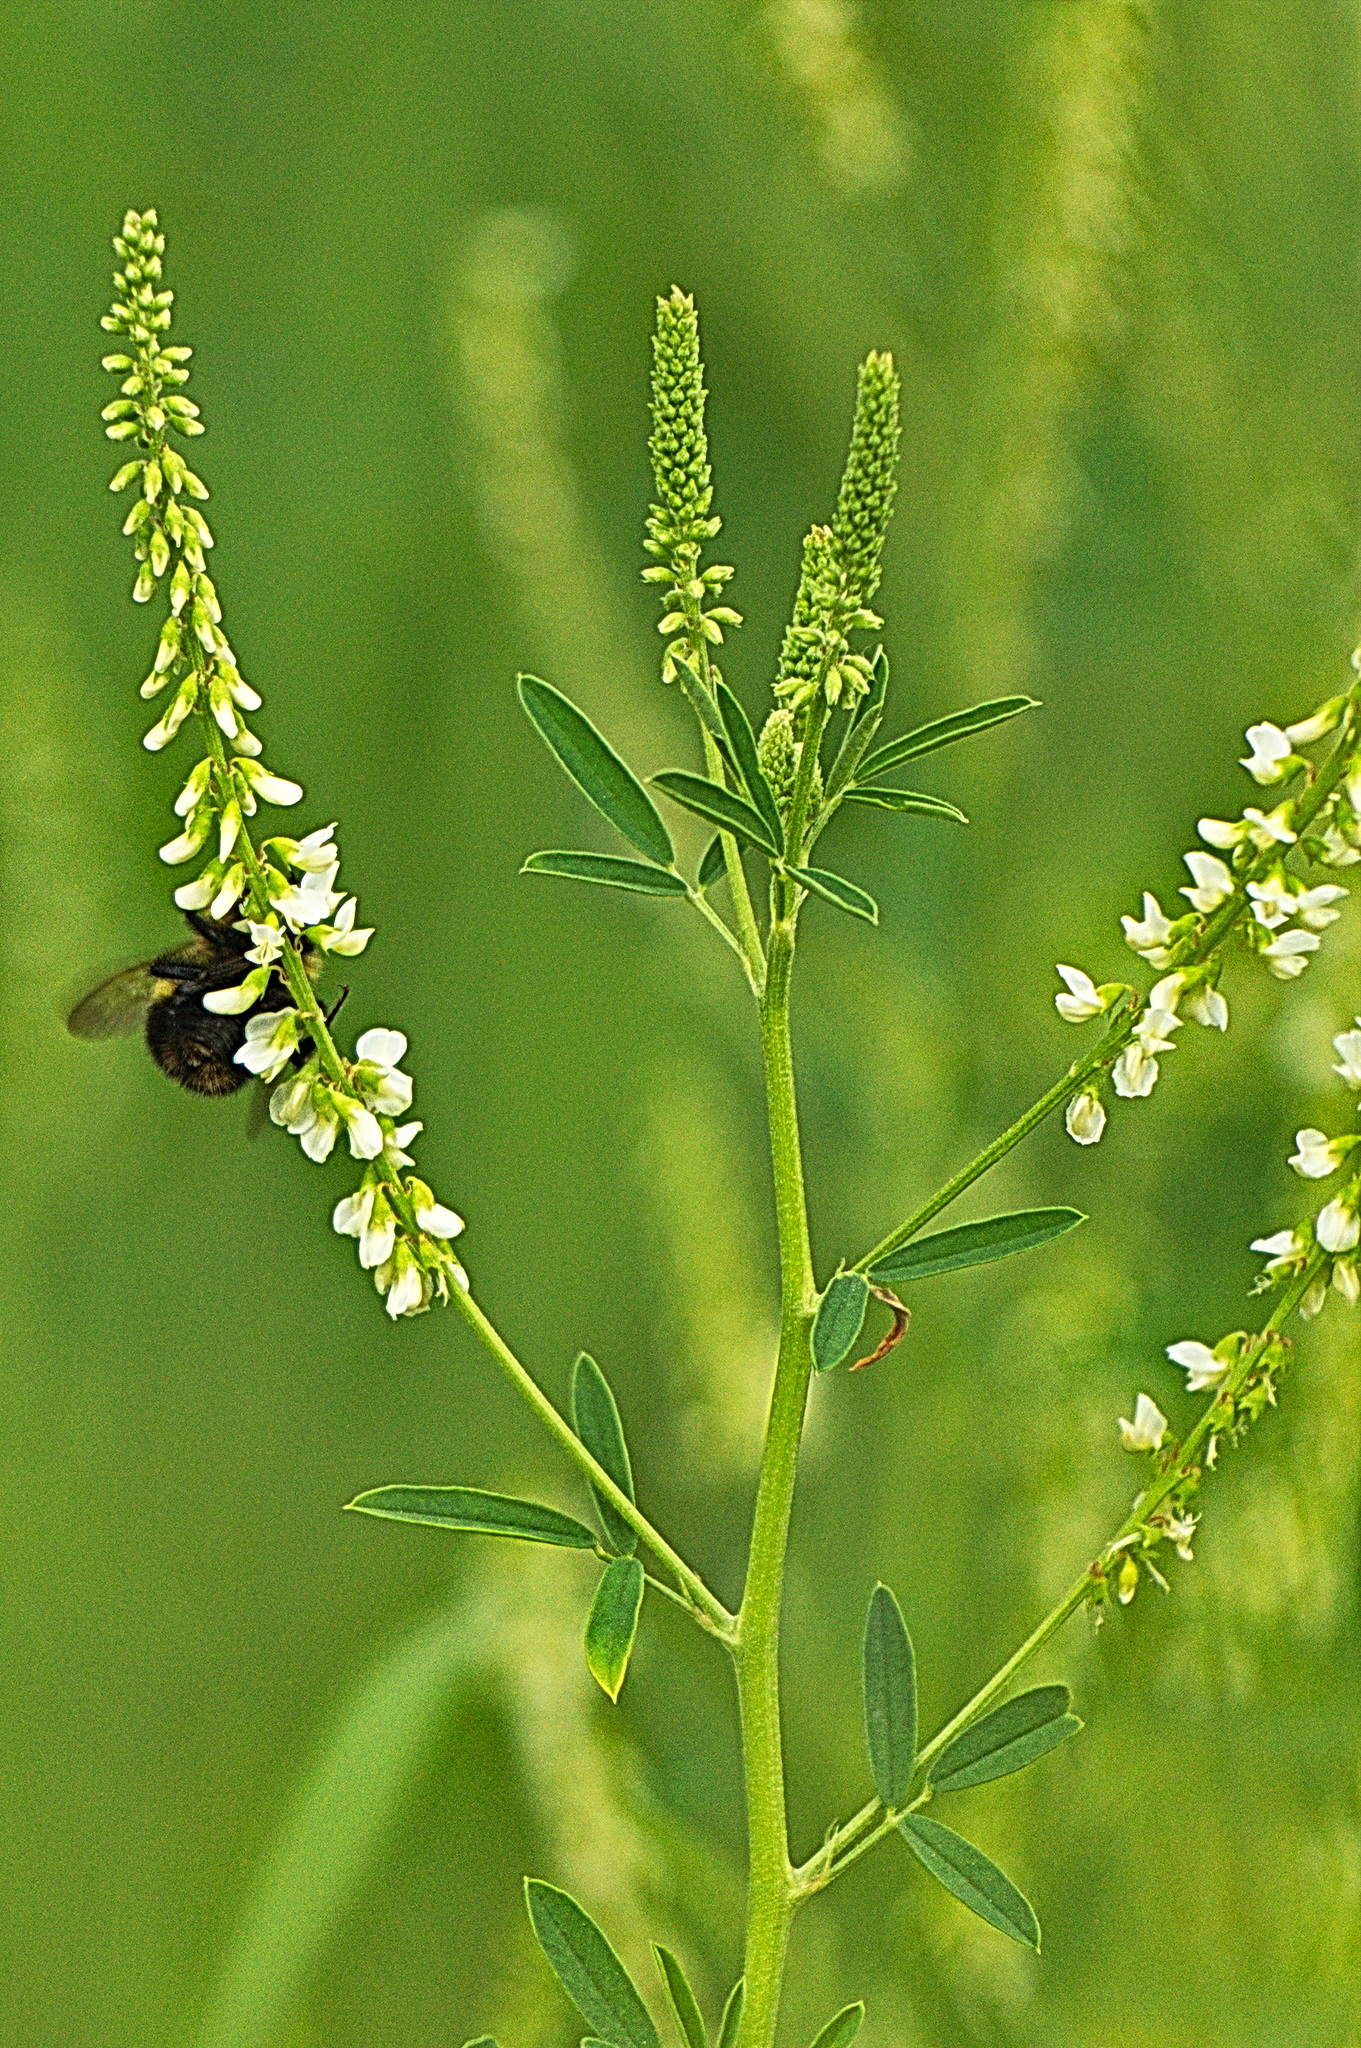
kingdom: Animalia
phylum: Arthropoda
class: Insecta
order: Hymenoptera
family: Apidae
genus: Bombus
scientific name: Bombus perplexus
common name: Confusing bumble bee
